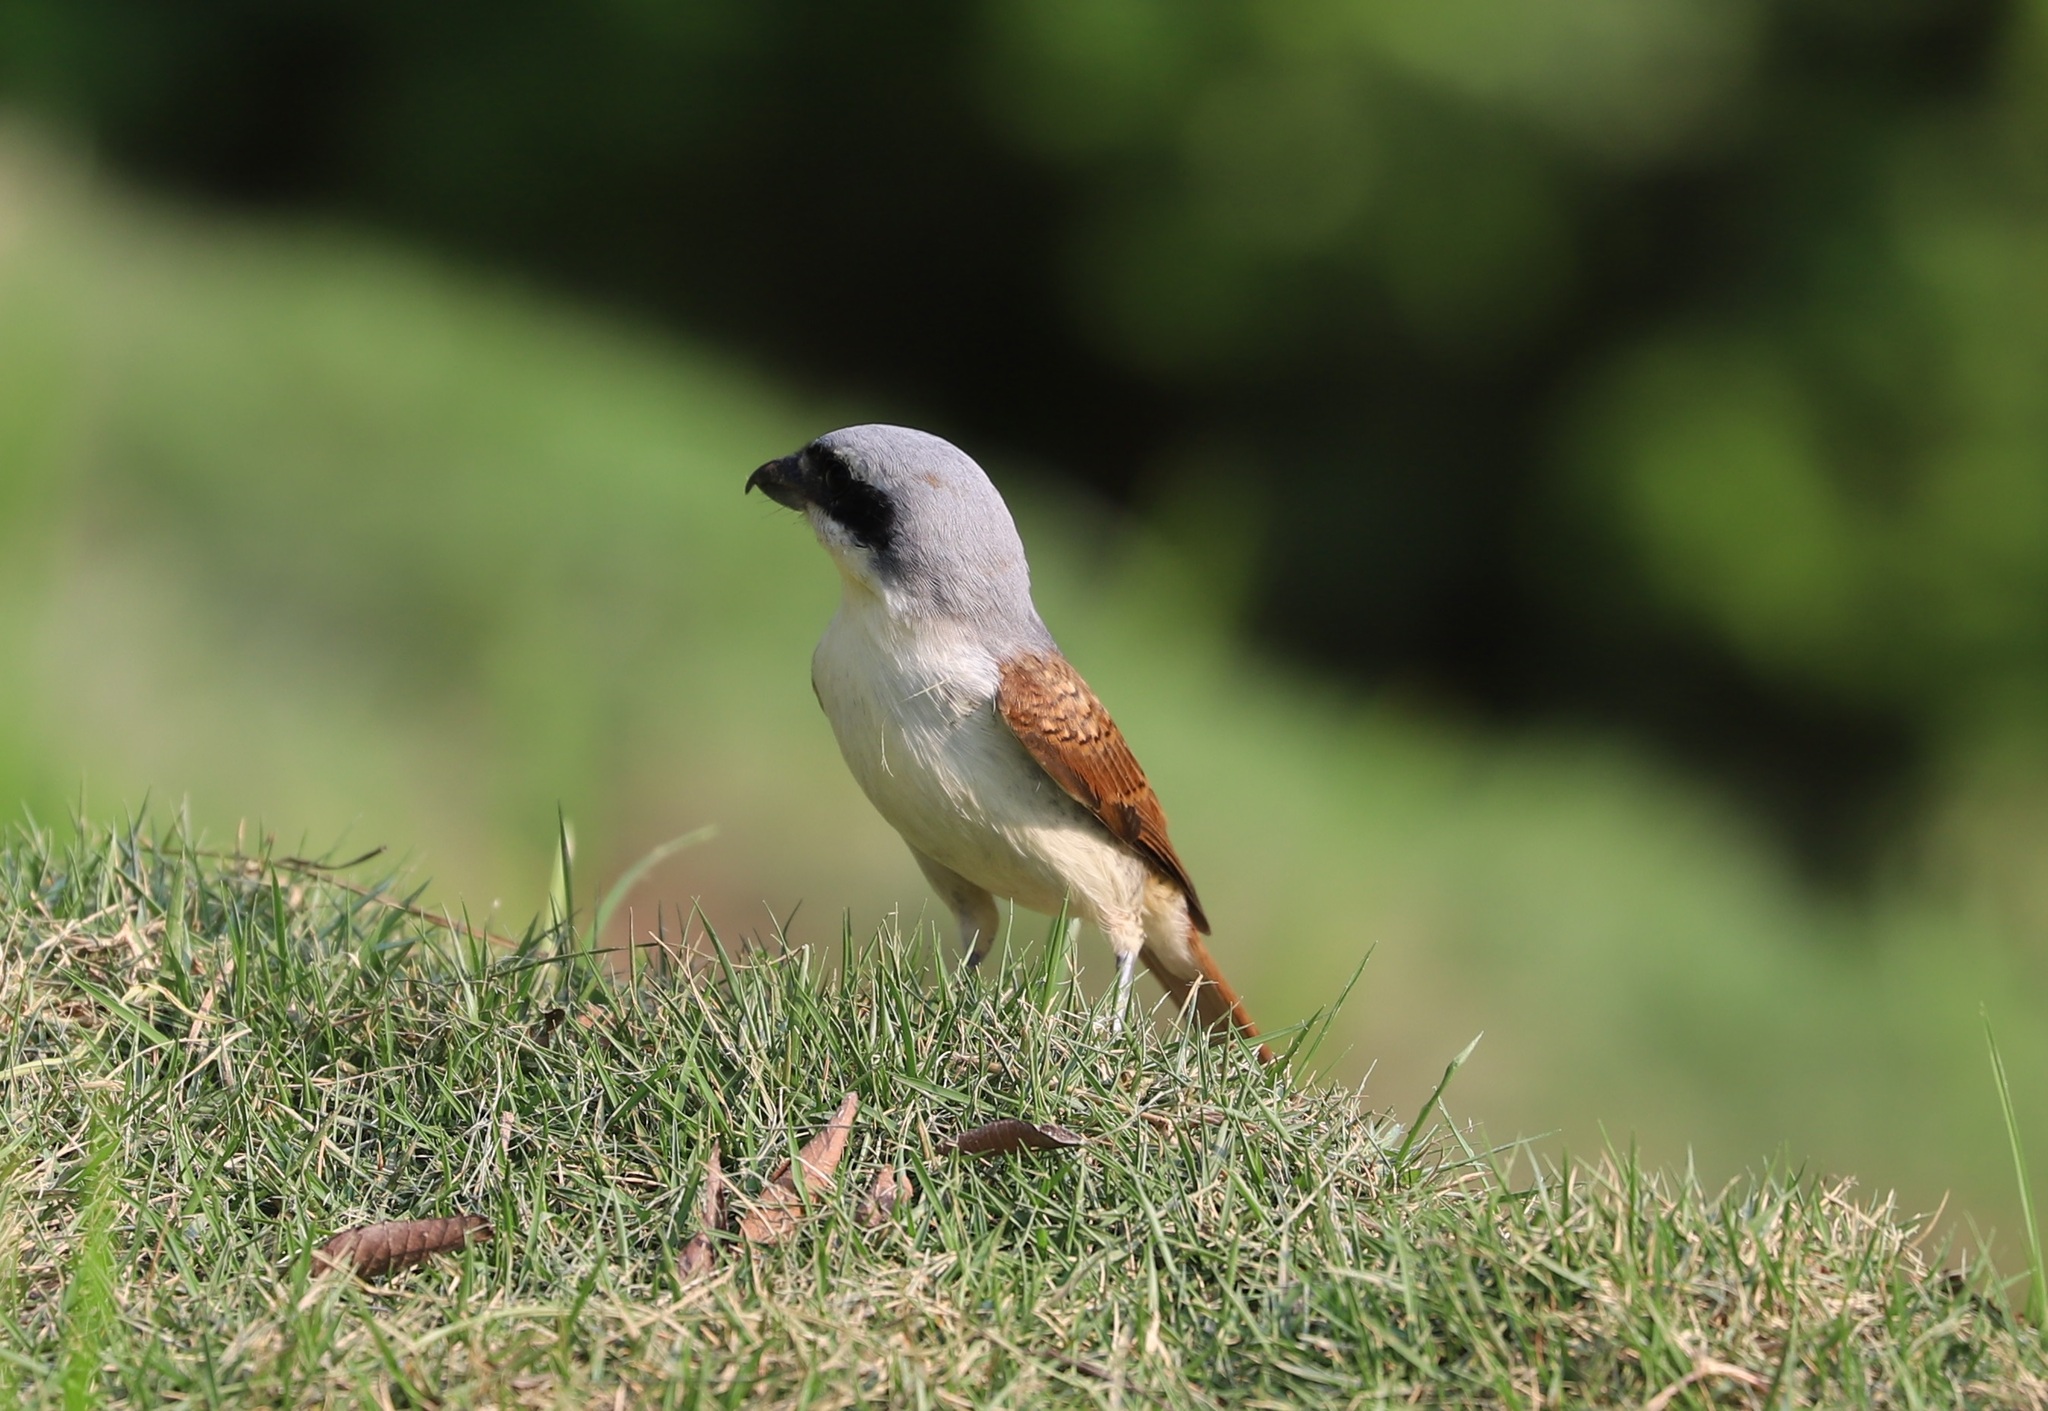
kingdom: Animalia
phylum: Chordata
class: Aves
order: Passeriformes
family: Laniidae
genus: Lanius
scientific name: Lanius tigrinus
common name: Tiger shrike
